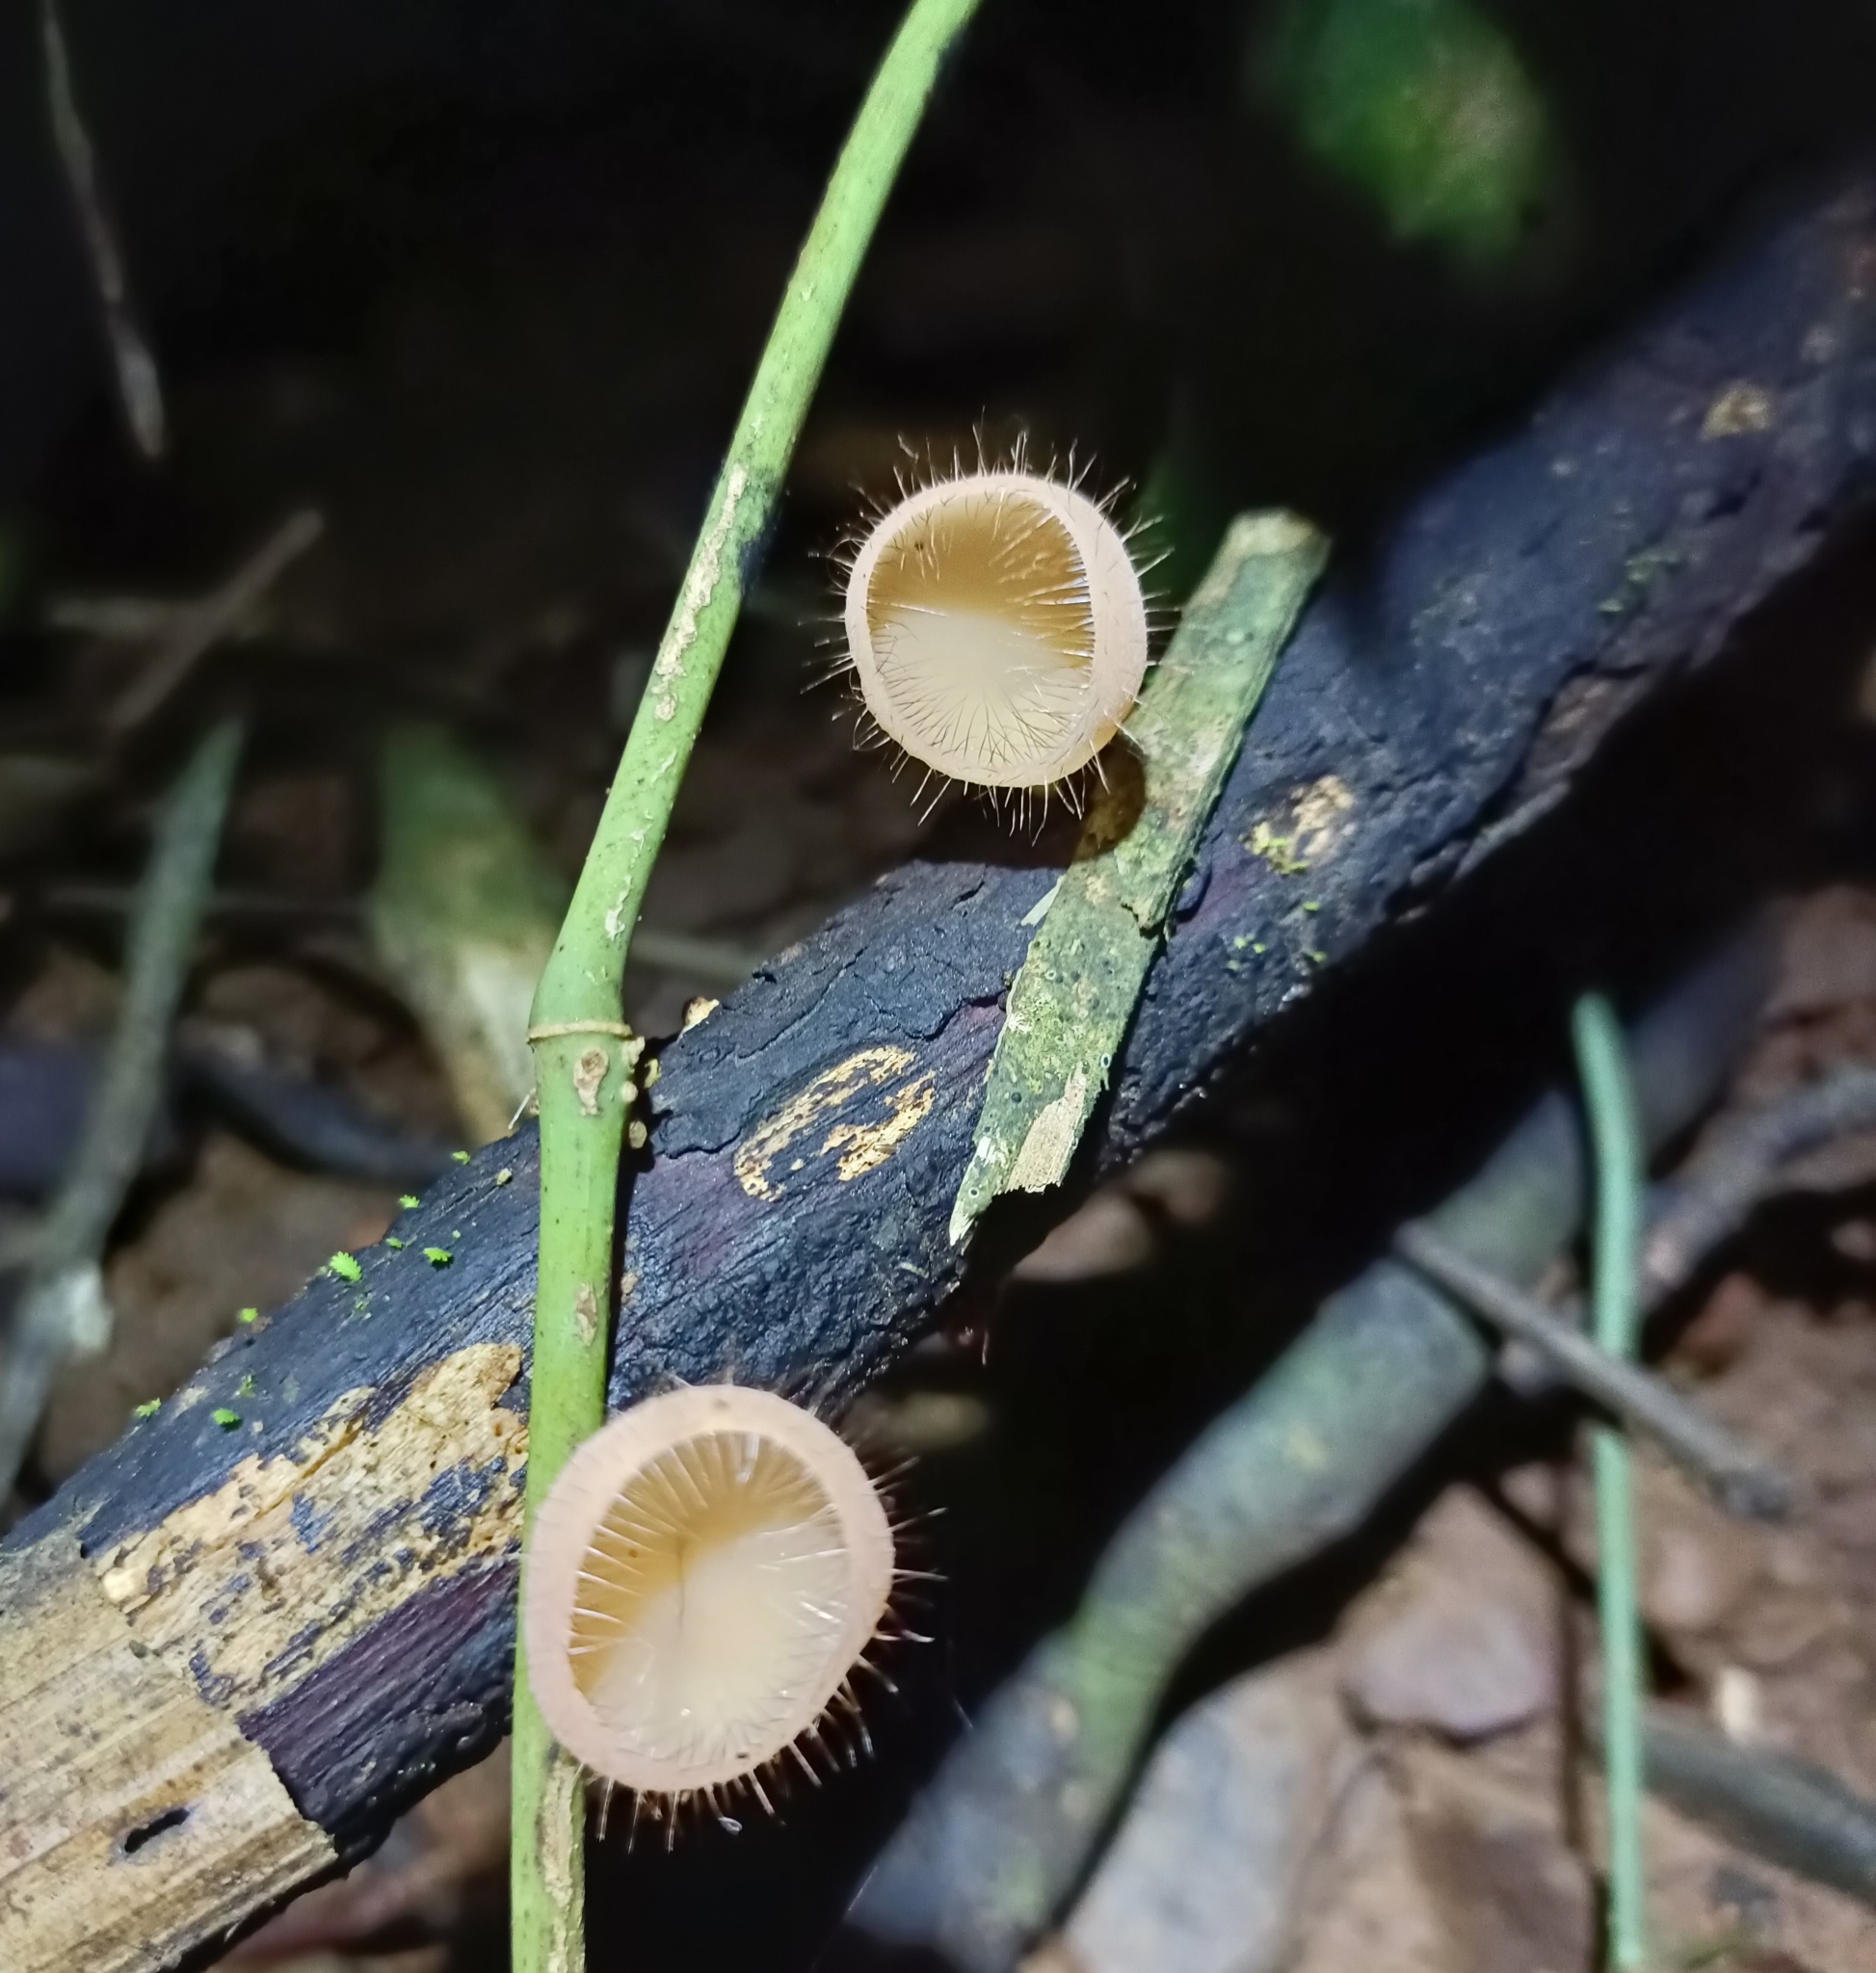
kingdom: Fungi
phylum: Ascomycota
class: Pezizomycetes
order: Pezizales
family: Sarcoscyphaceae
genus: Cookeina
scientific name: Cookeina tricholoma
